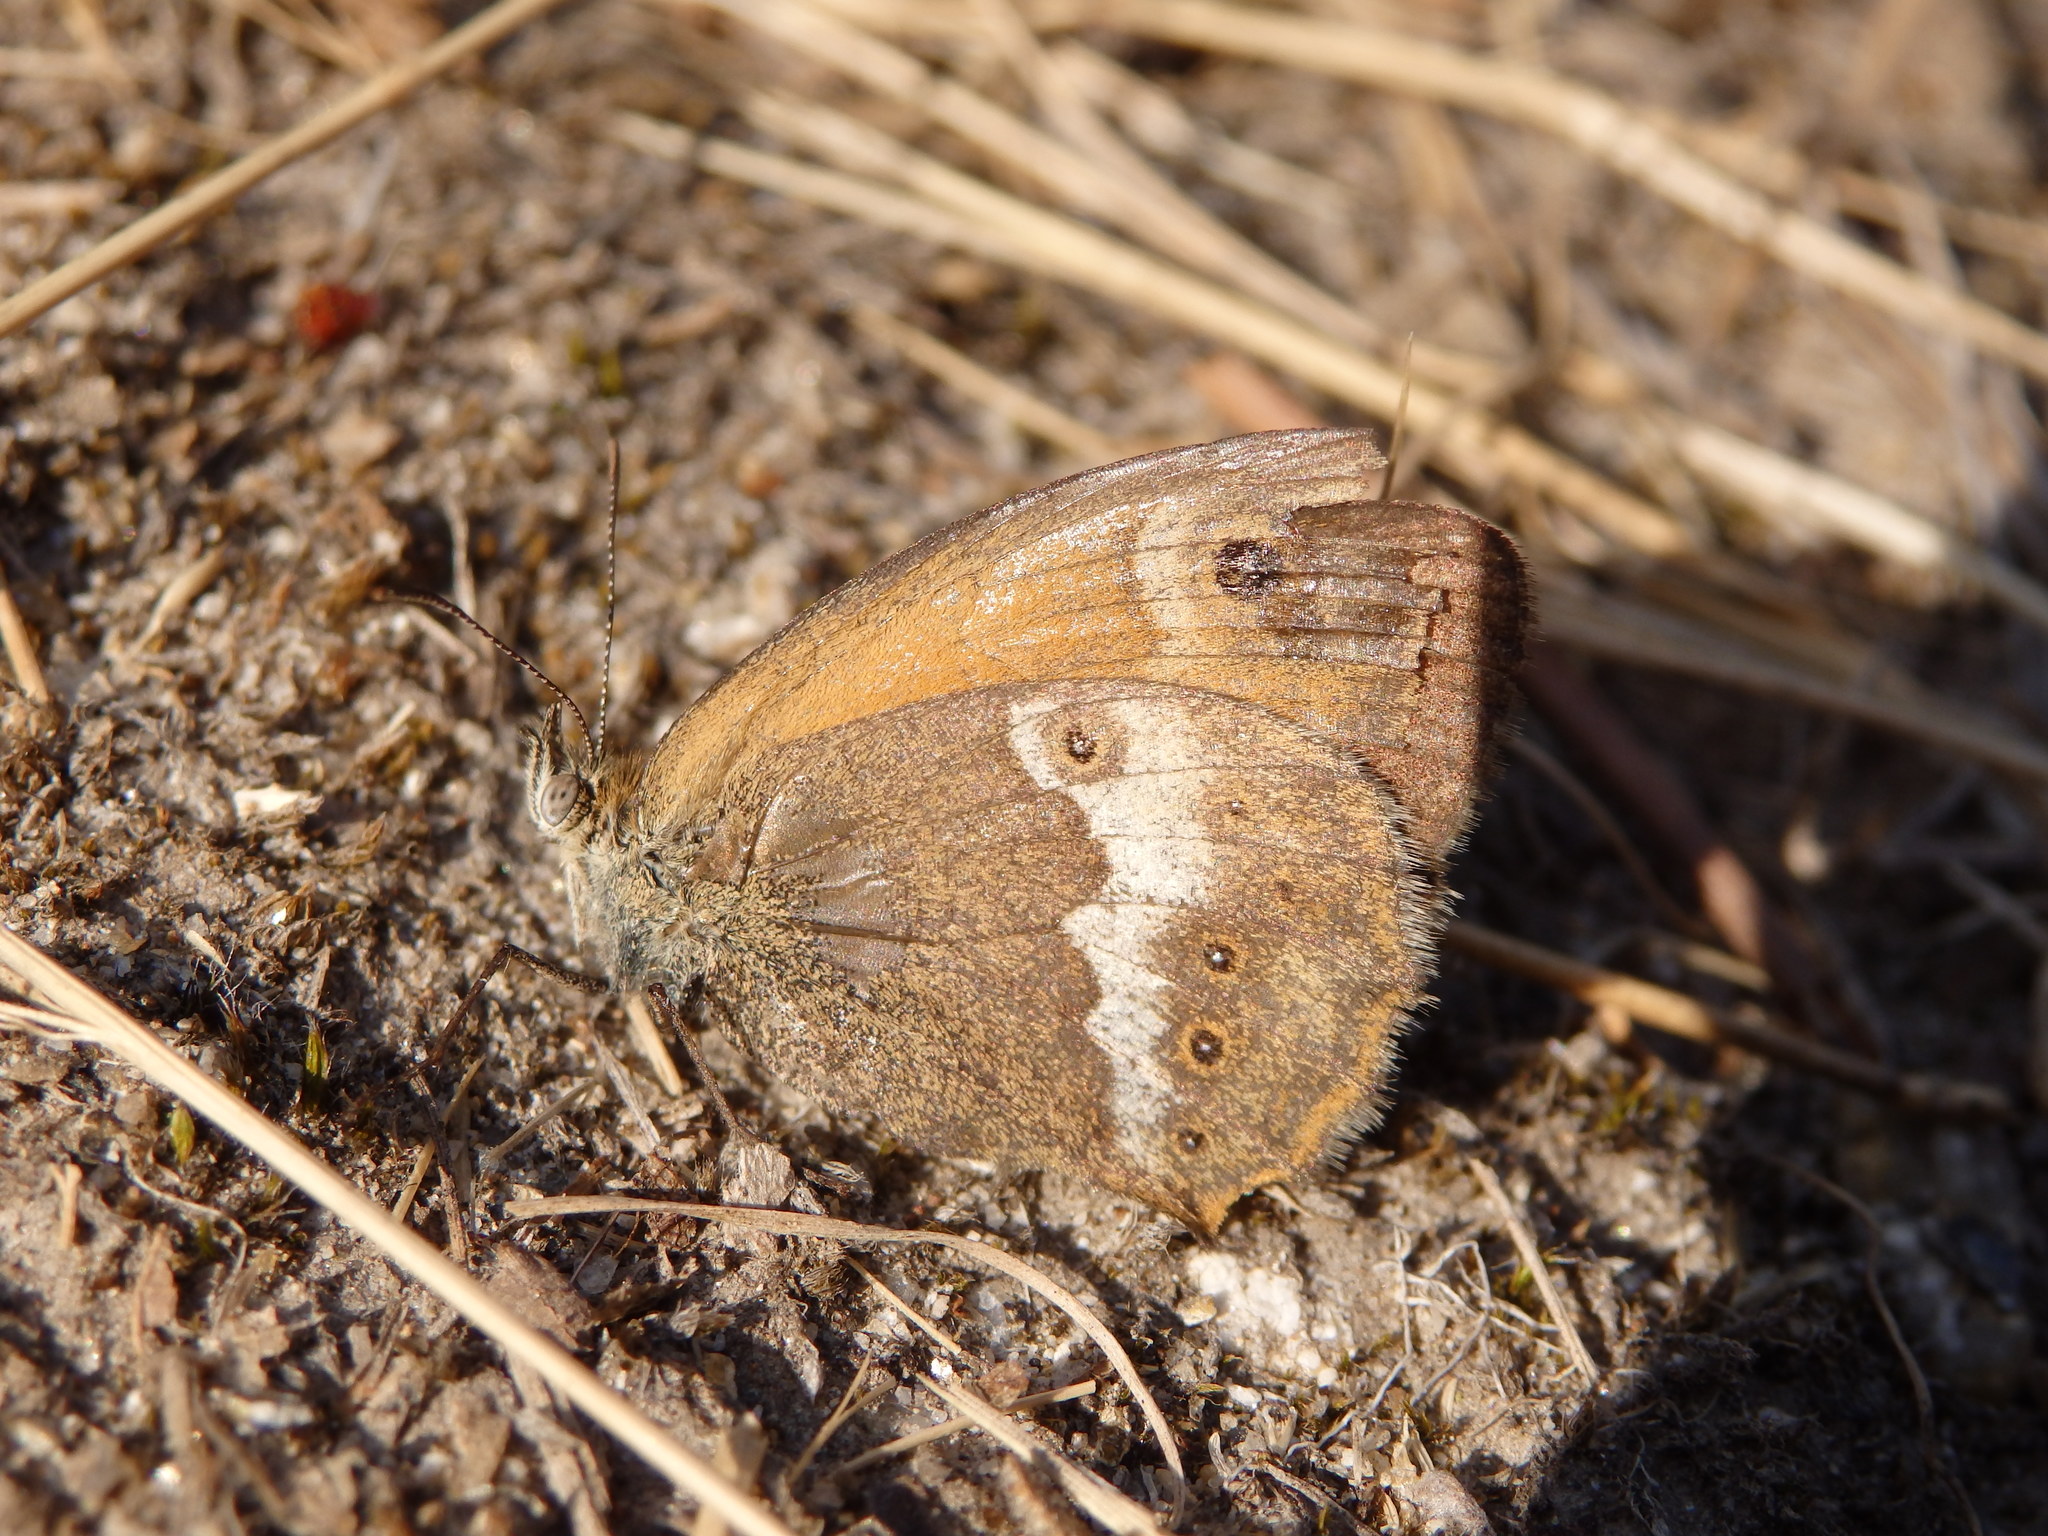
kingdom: Animalia
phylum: Arthropoda
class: Insecta
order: Lepidoptera
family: Nymphalidae
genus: Coenonympha
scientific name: Coenonympha dorus
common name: Dusky heath
